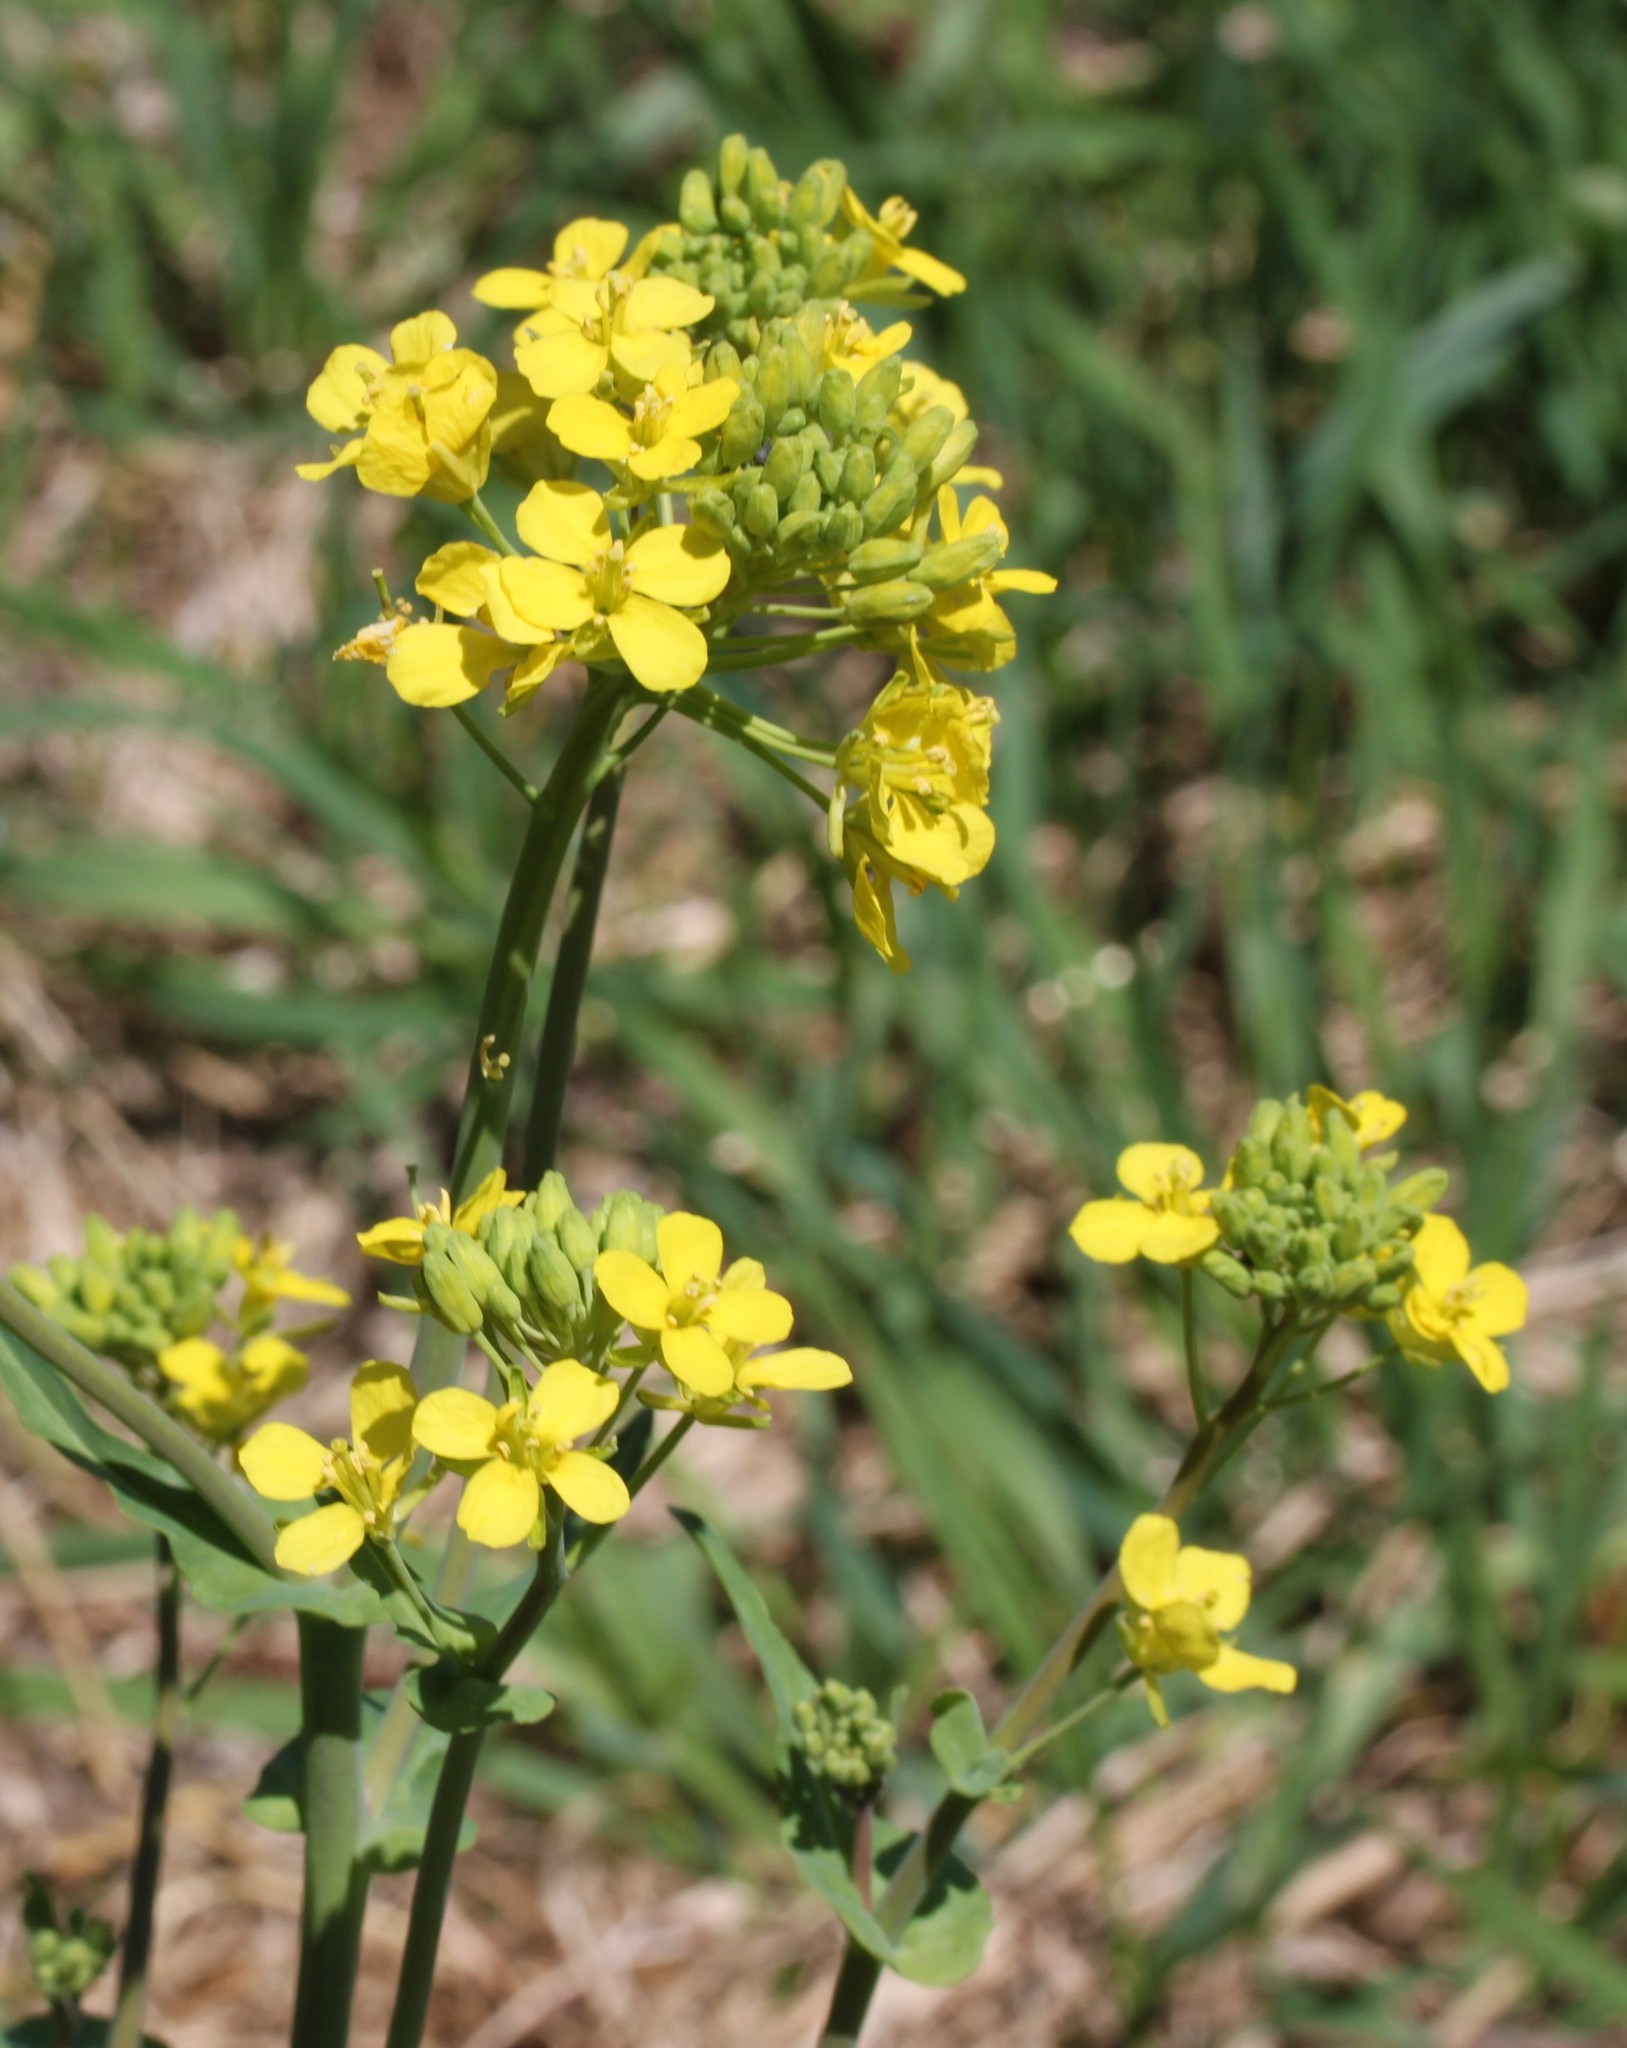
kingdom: Plantae
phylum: Tracheophyta
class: Magnoliopsida
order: Brassicales
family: Brassicaceae
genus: Brassica
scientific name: Brassica rapa
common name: Field mustard
